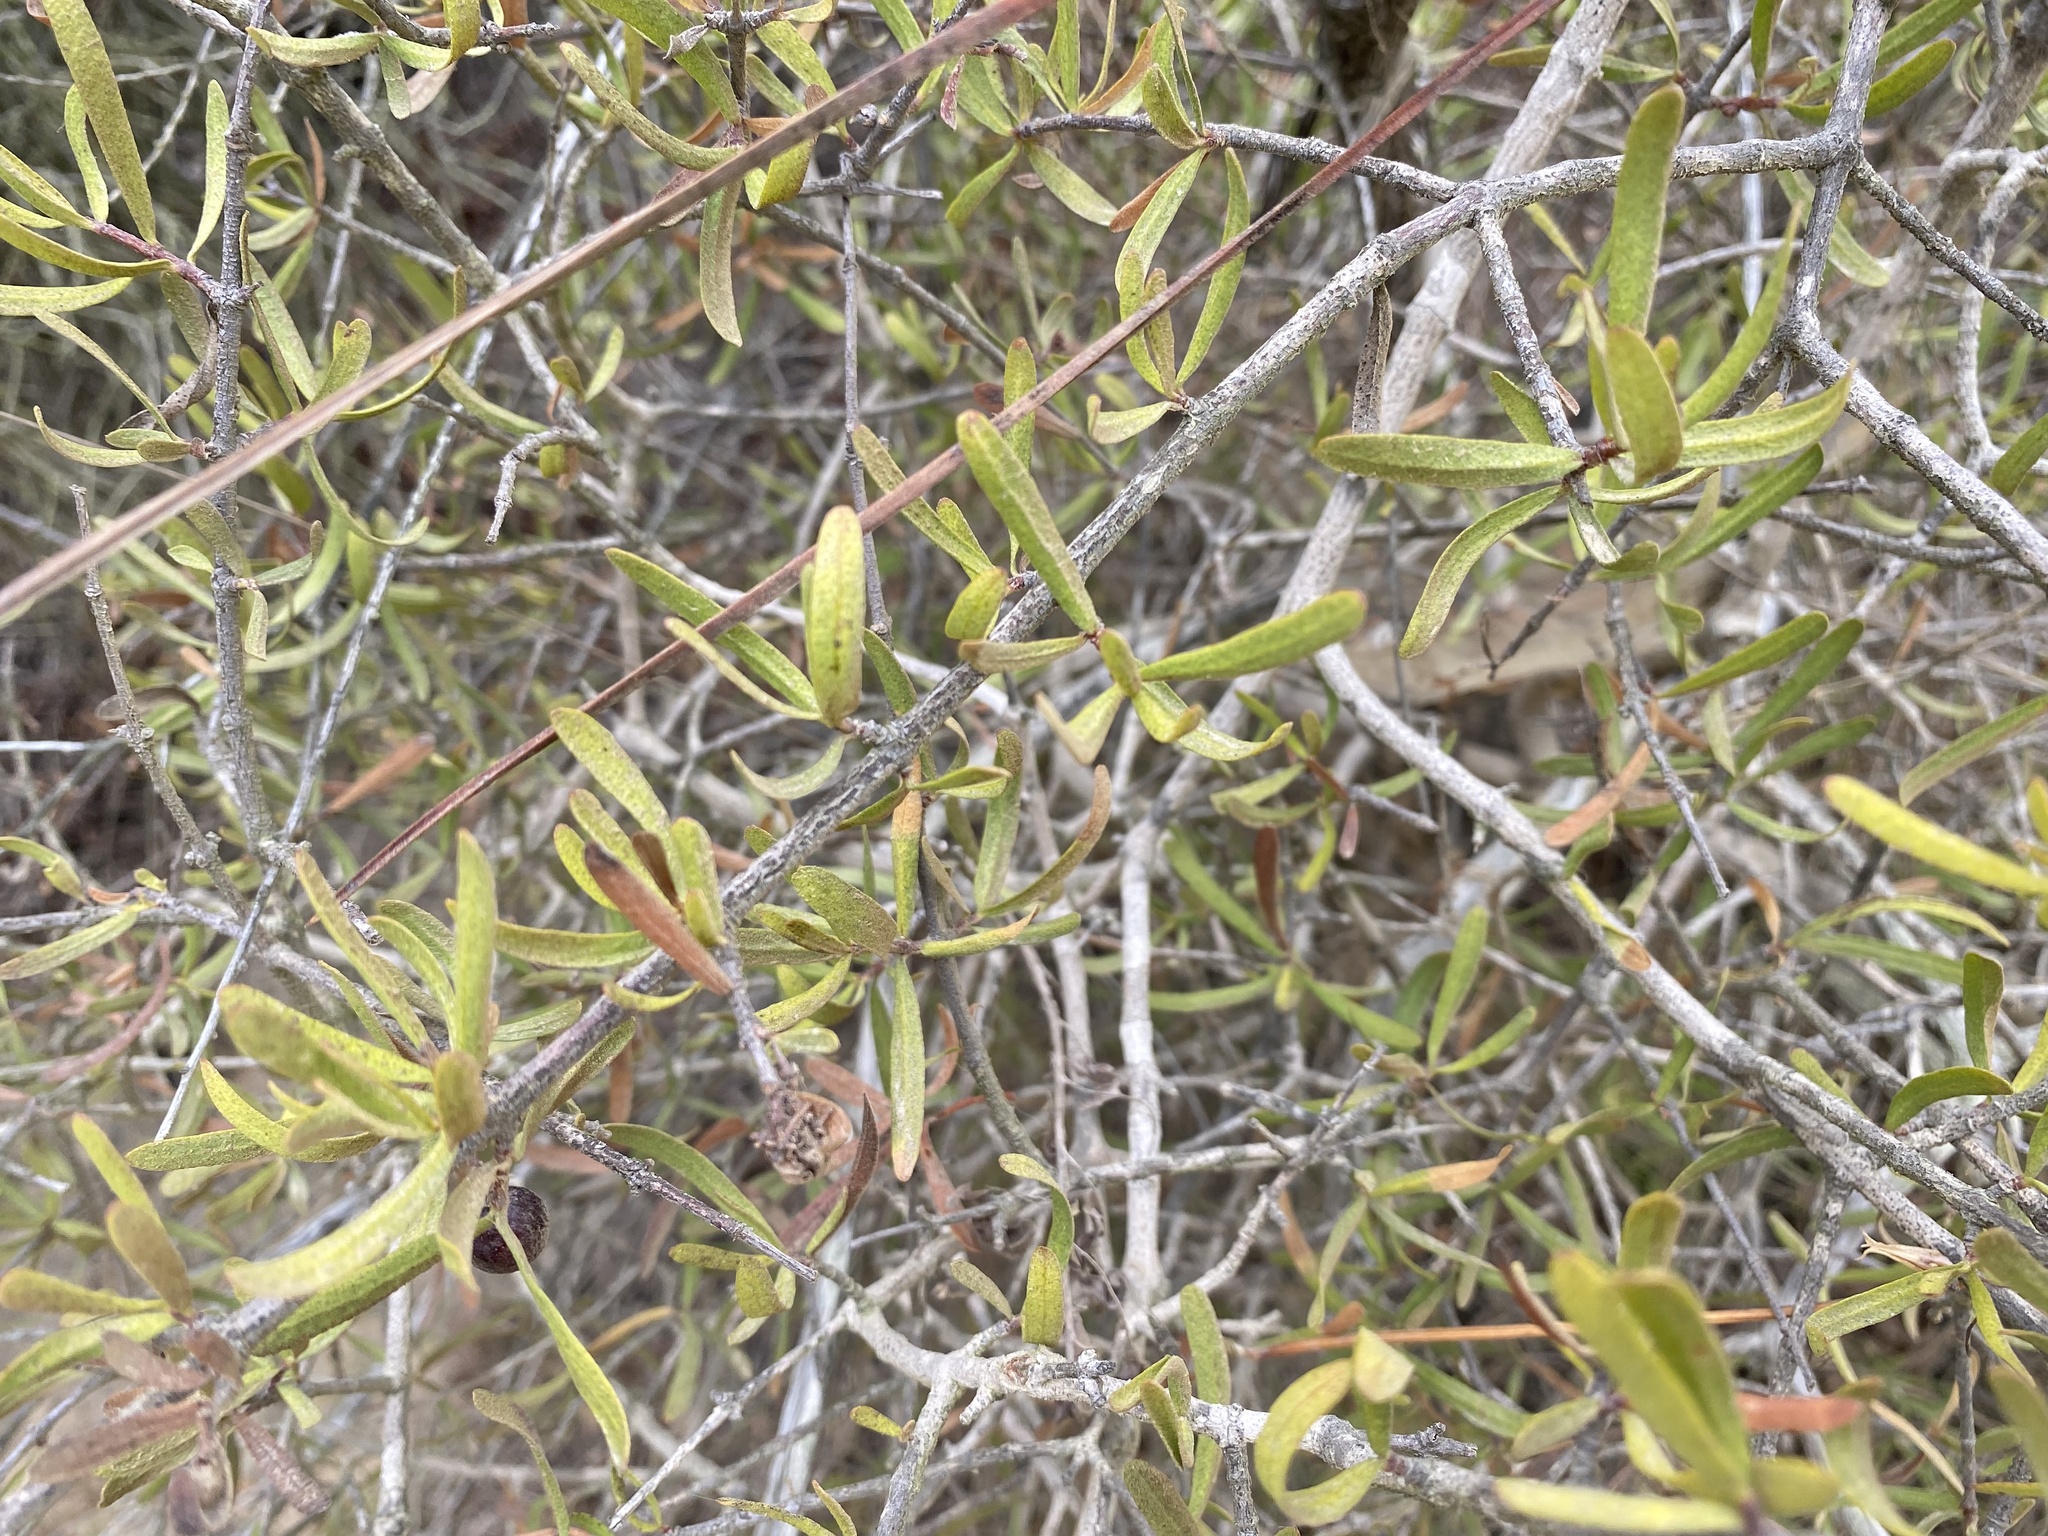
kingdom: Plantae
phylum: Tracheophyta
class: Magnoliopsida
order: Sapindales
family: Rutaceae
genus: Cneoridium
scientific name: Cneoridium dumosum
